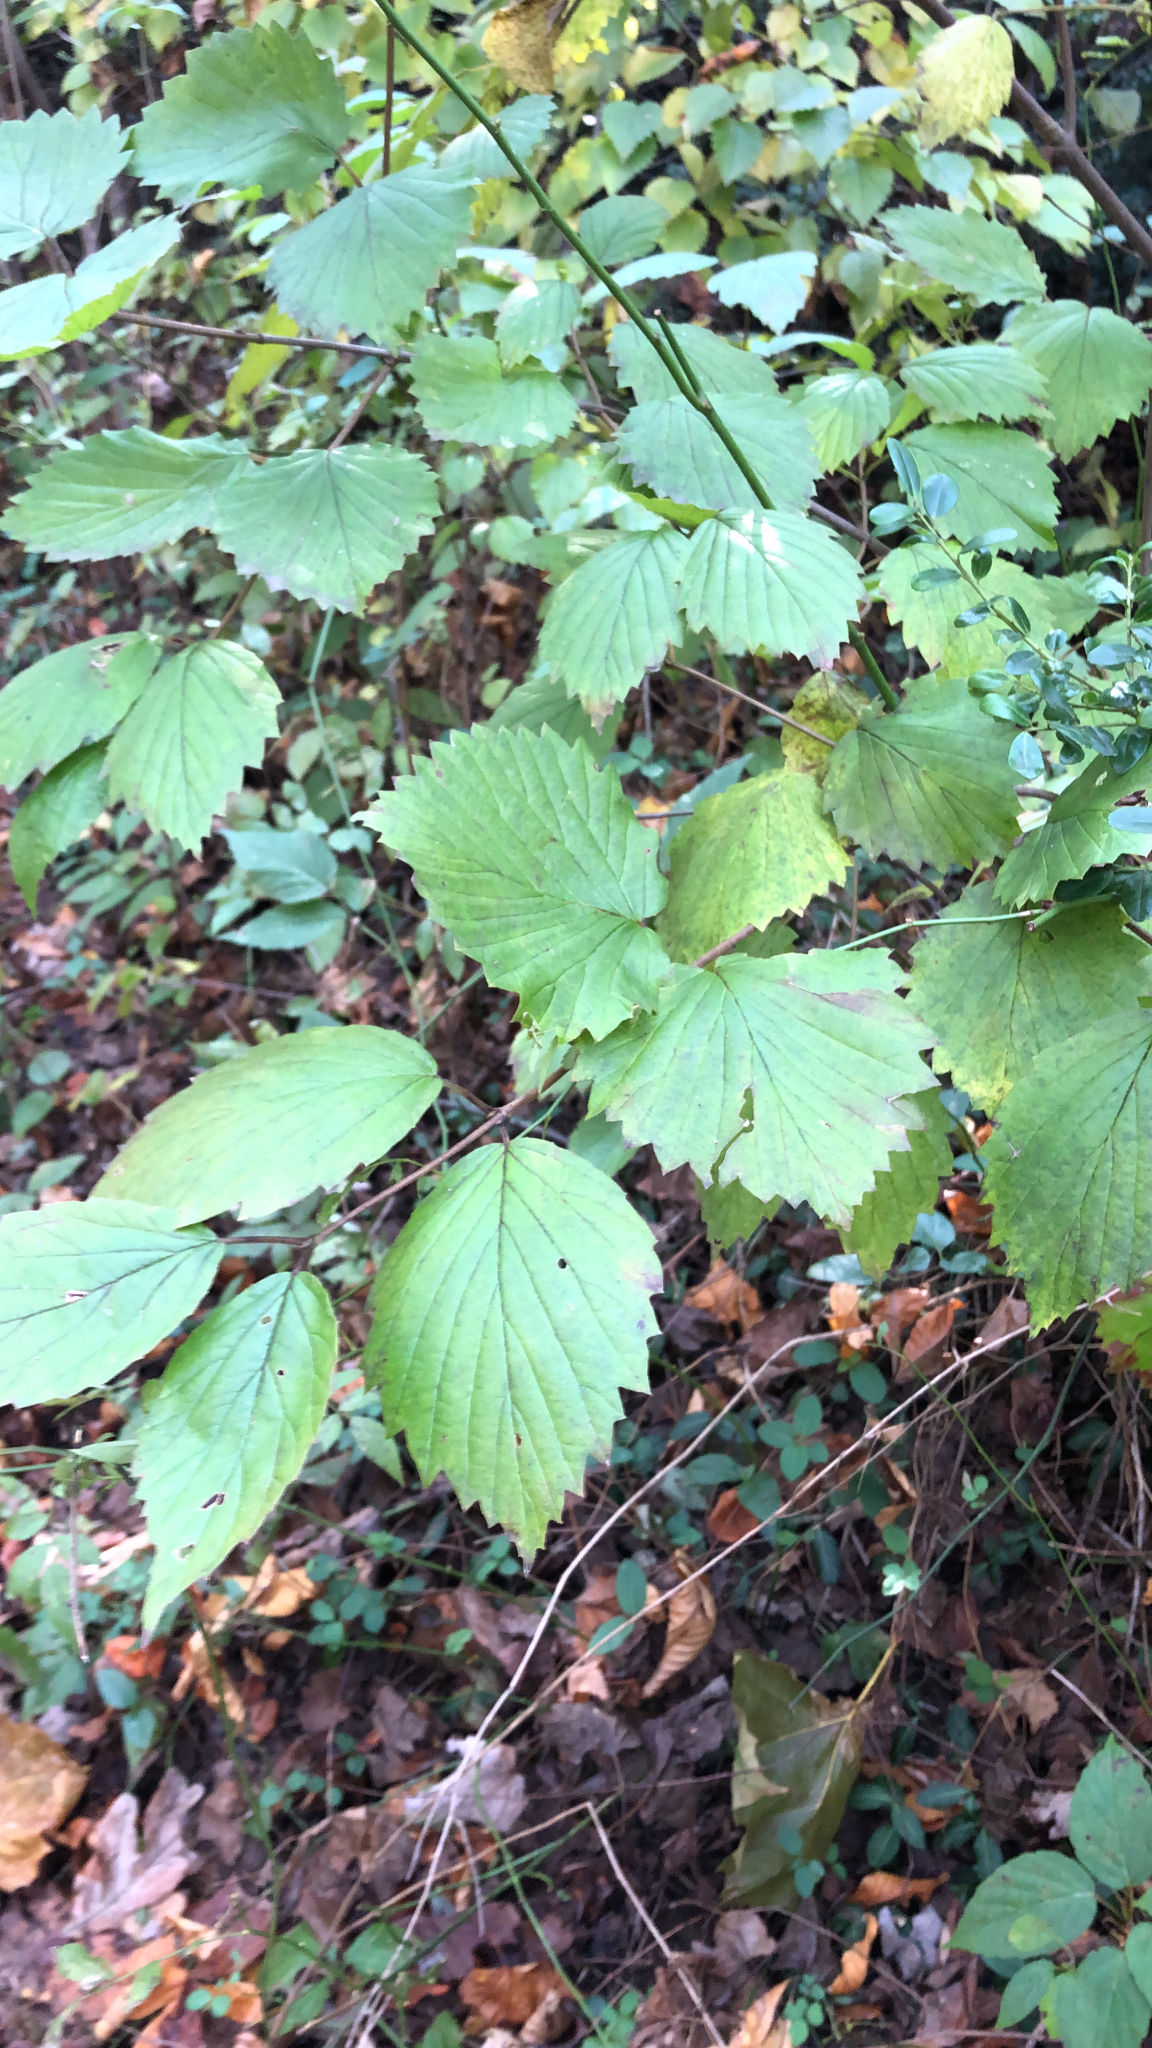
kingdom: Plantae
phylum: Tracheophyta
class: Magnoliopsida
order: Dipsacales
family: Viburnaceae
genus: Viburnum
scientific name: Viburnum dentatum
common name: Arrow-wood
